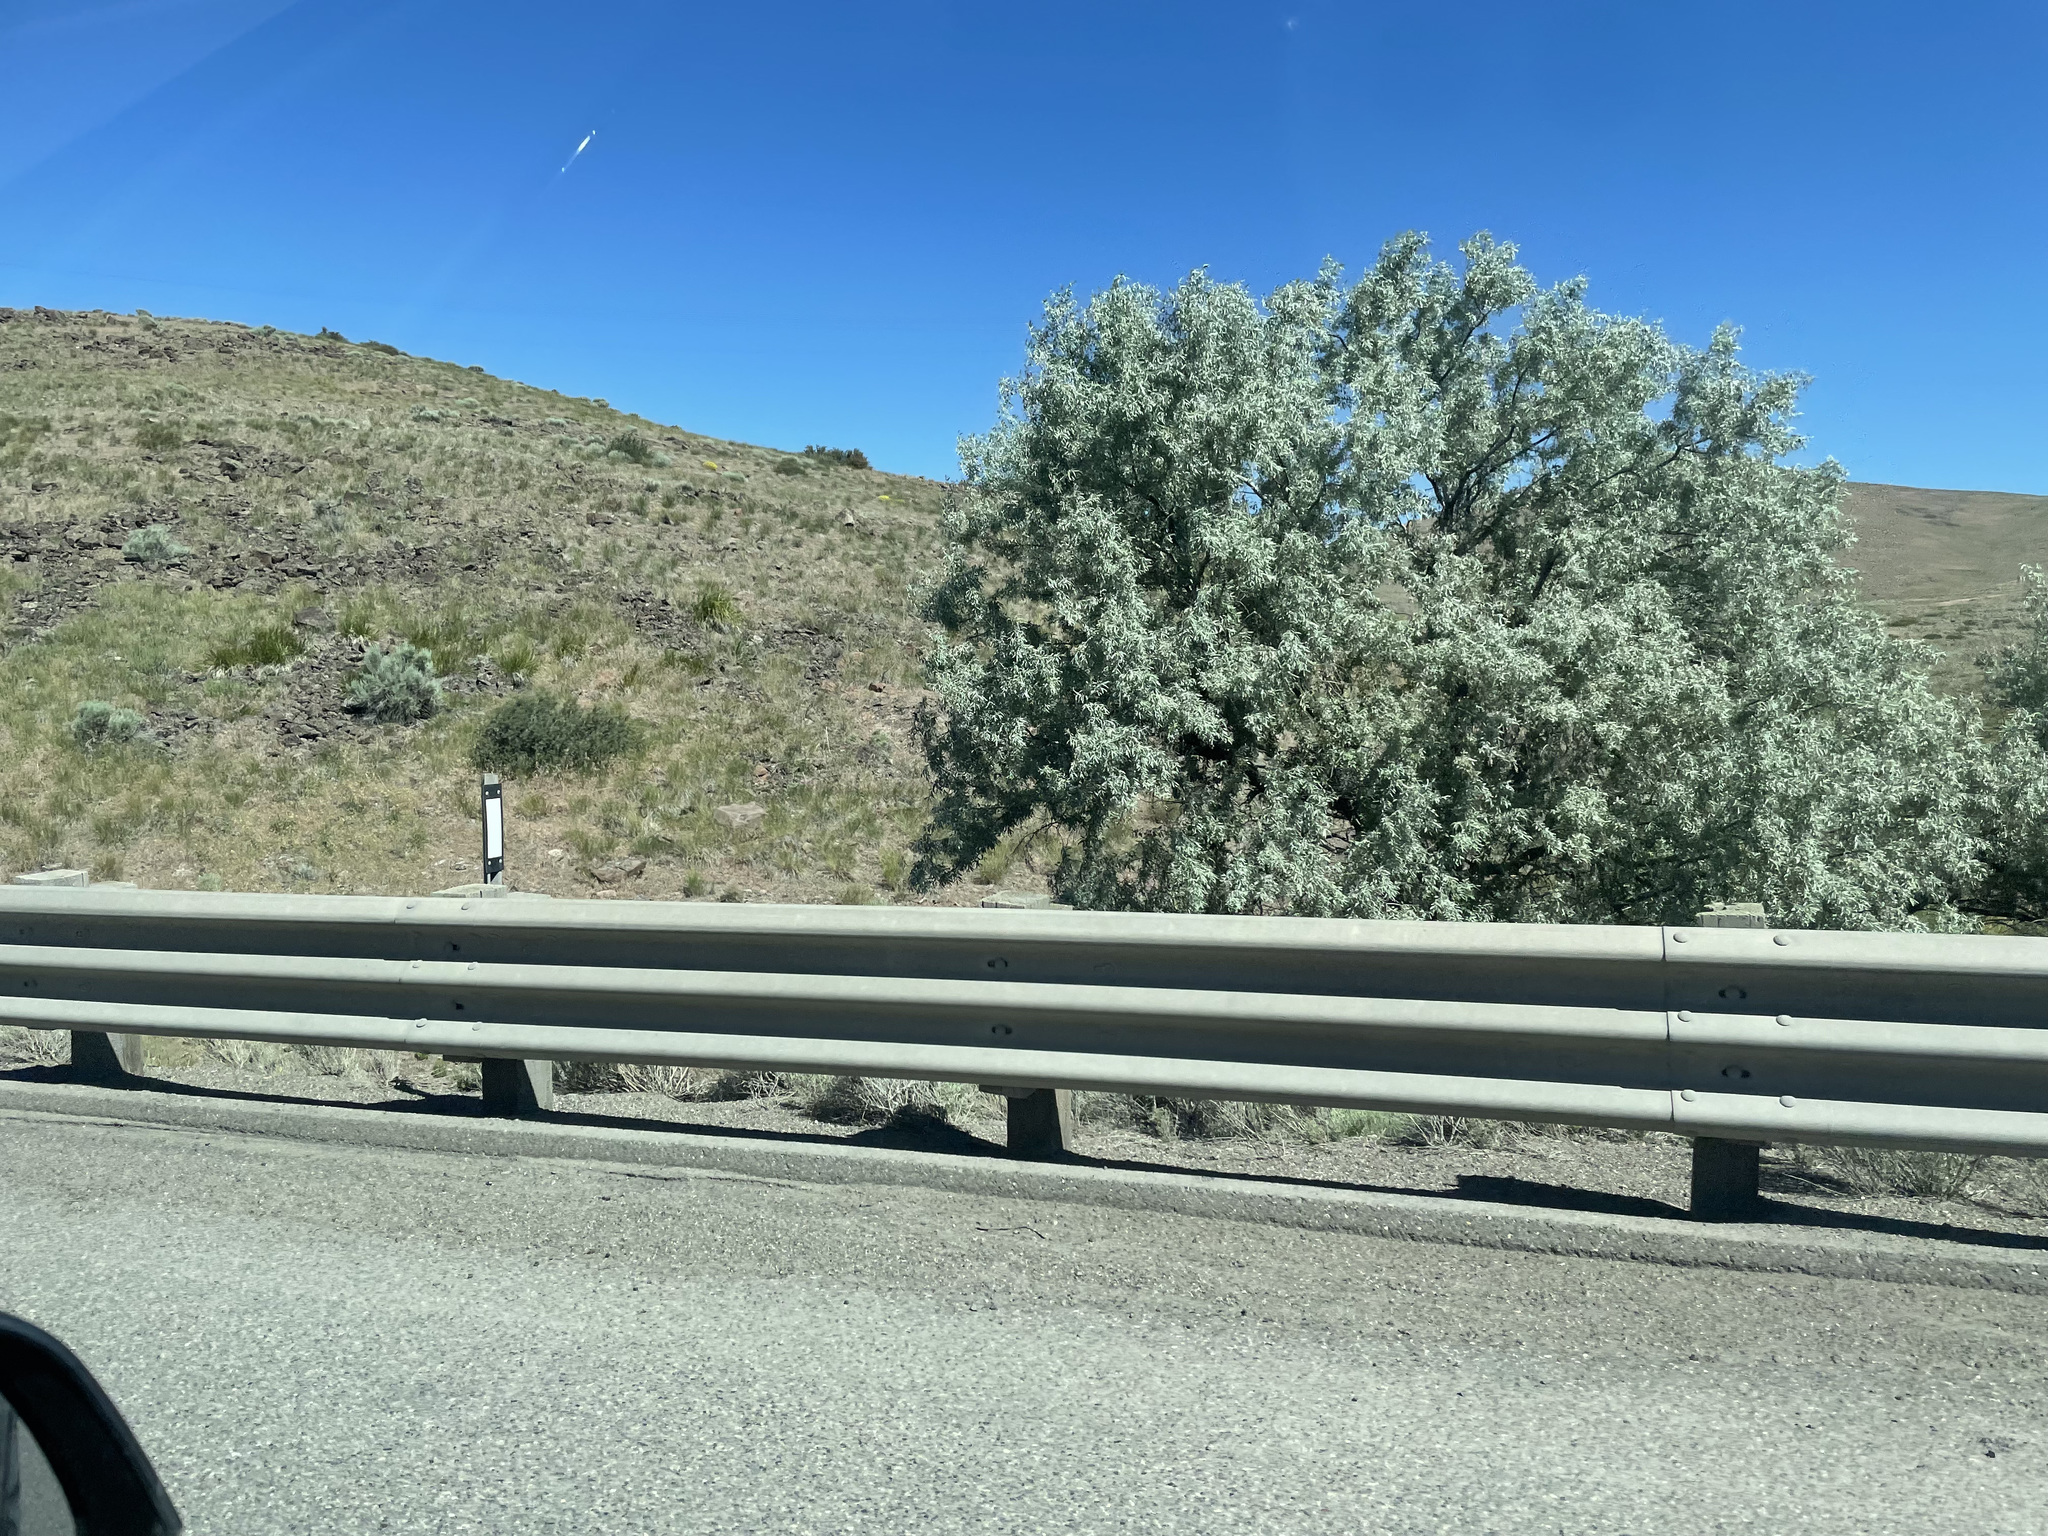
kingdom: Plantae
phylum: Tracheophyta
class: Magnoliopsida
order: Rosales
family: Elaeagnaceae
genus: Elaeagnus
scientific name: Elaeagnus angustifolia
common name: Russian olive
